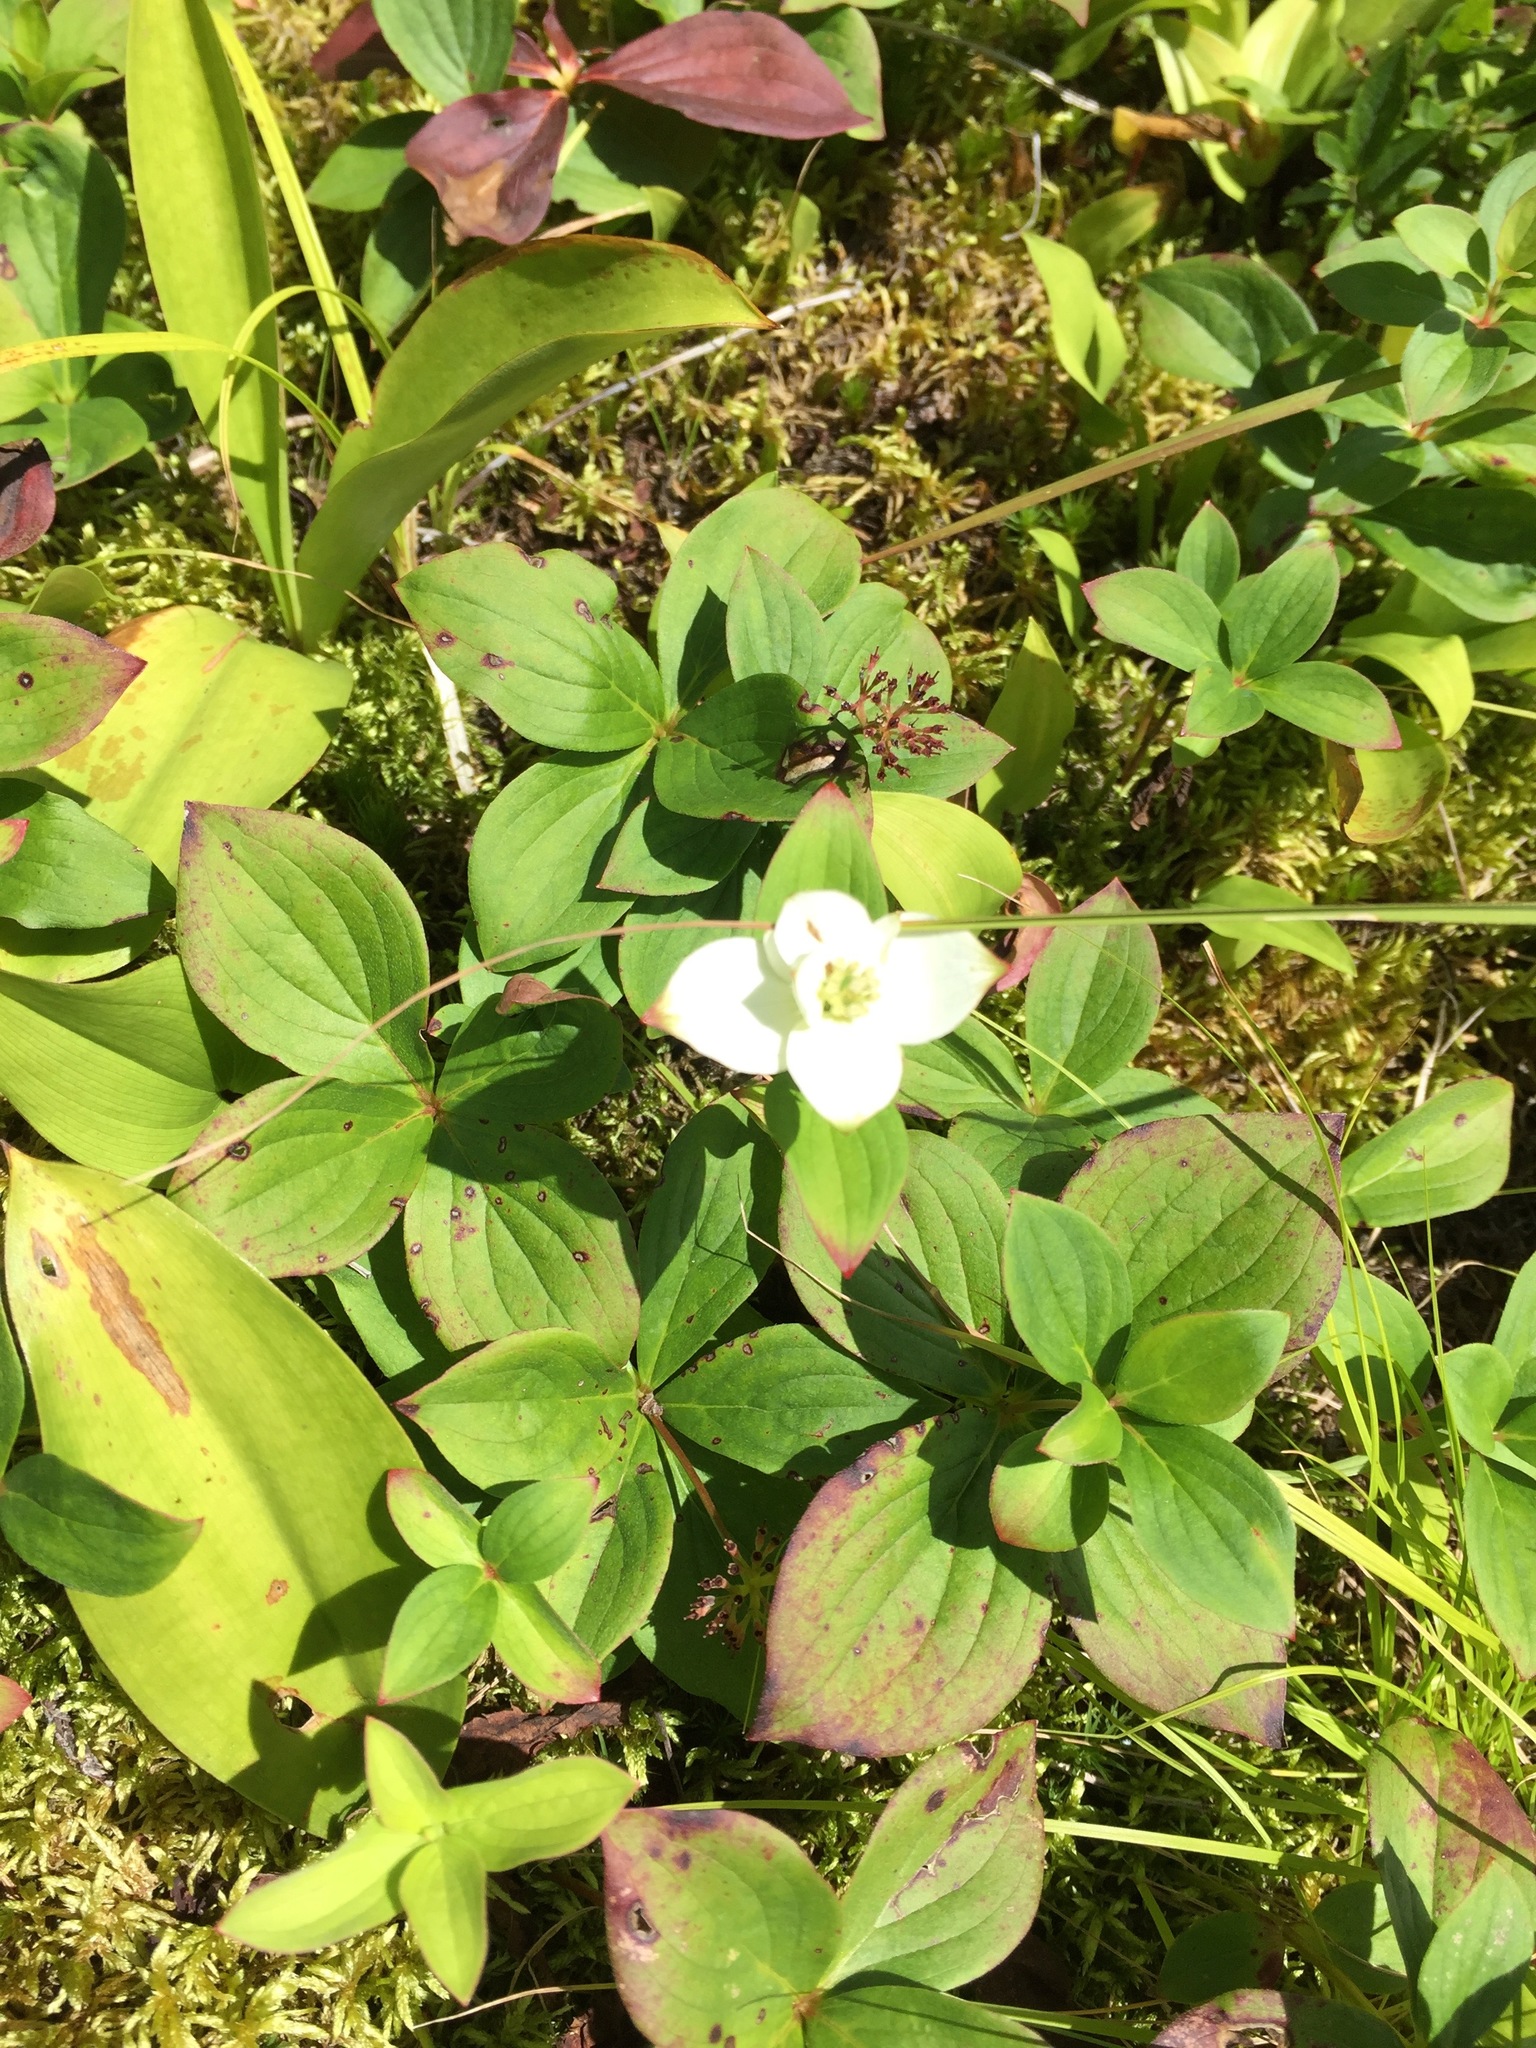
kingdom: Plantae
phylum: Tracheophyta
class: Magnoliopsida
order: Cornales
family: Cornaceae
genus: Cornus
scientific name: Cornus canadensis
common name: Creeping dogwood
